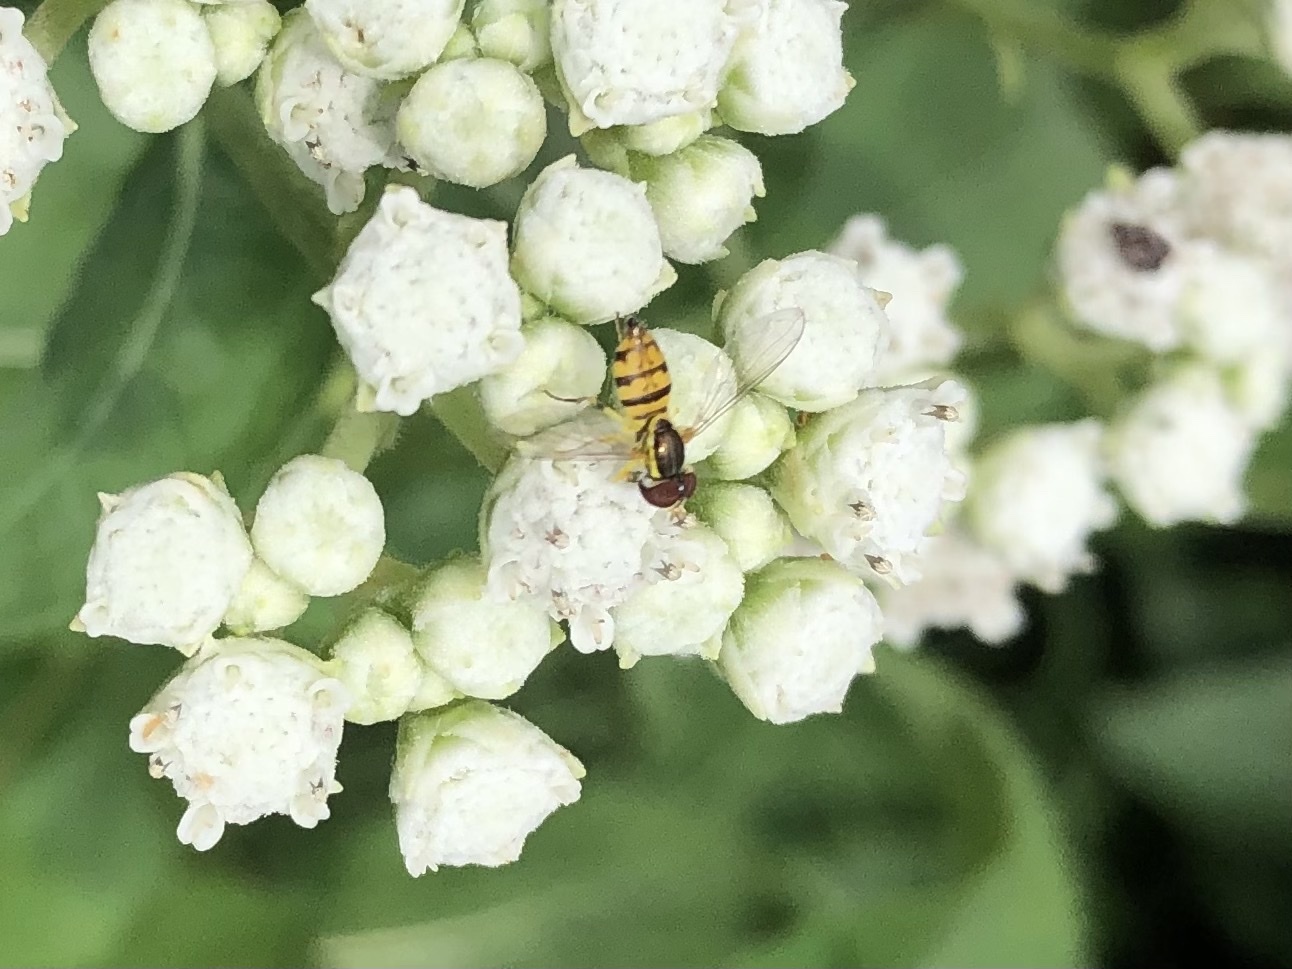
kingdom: Animalia
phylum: Arthropoda
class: Insecta
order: Diptera
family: Syrphidae
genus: Toxomerus
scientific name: Toxomerus geminatus
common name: Eastern calligrapher
